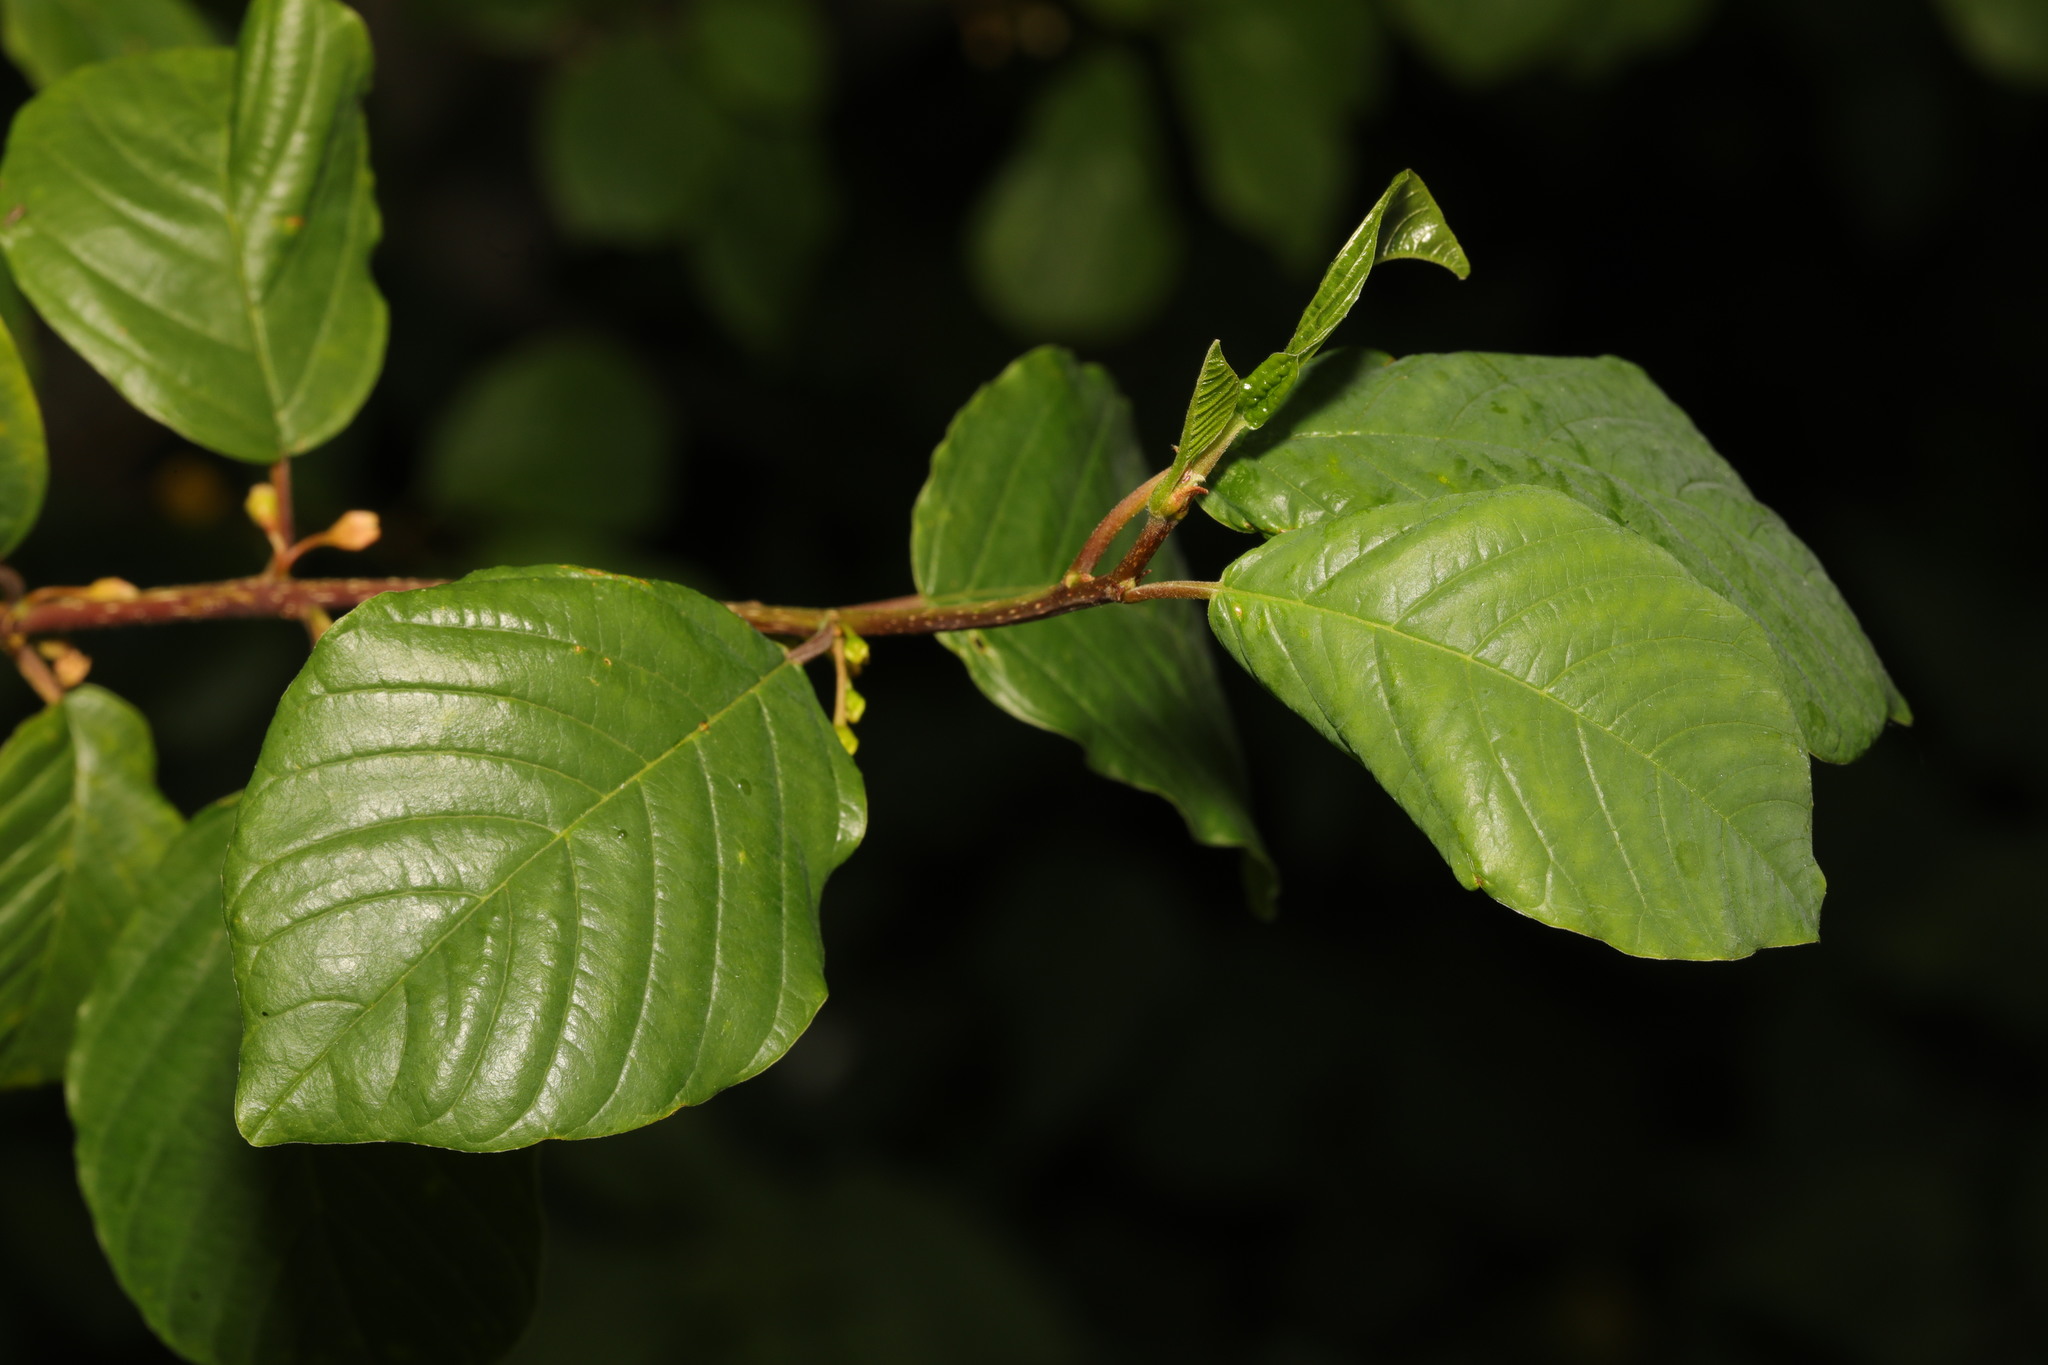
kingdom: Plantae
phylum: Tracheophyta
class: Magnoliopsida
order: Rosales
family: Rhamnaceae
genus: Frangula
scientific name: Frangula alnus
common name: Alder buckthorn
